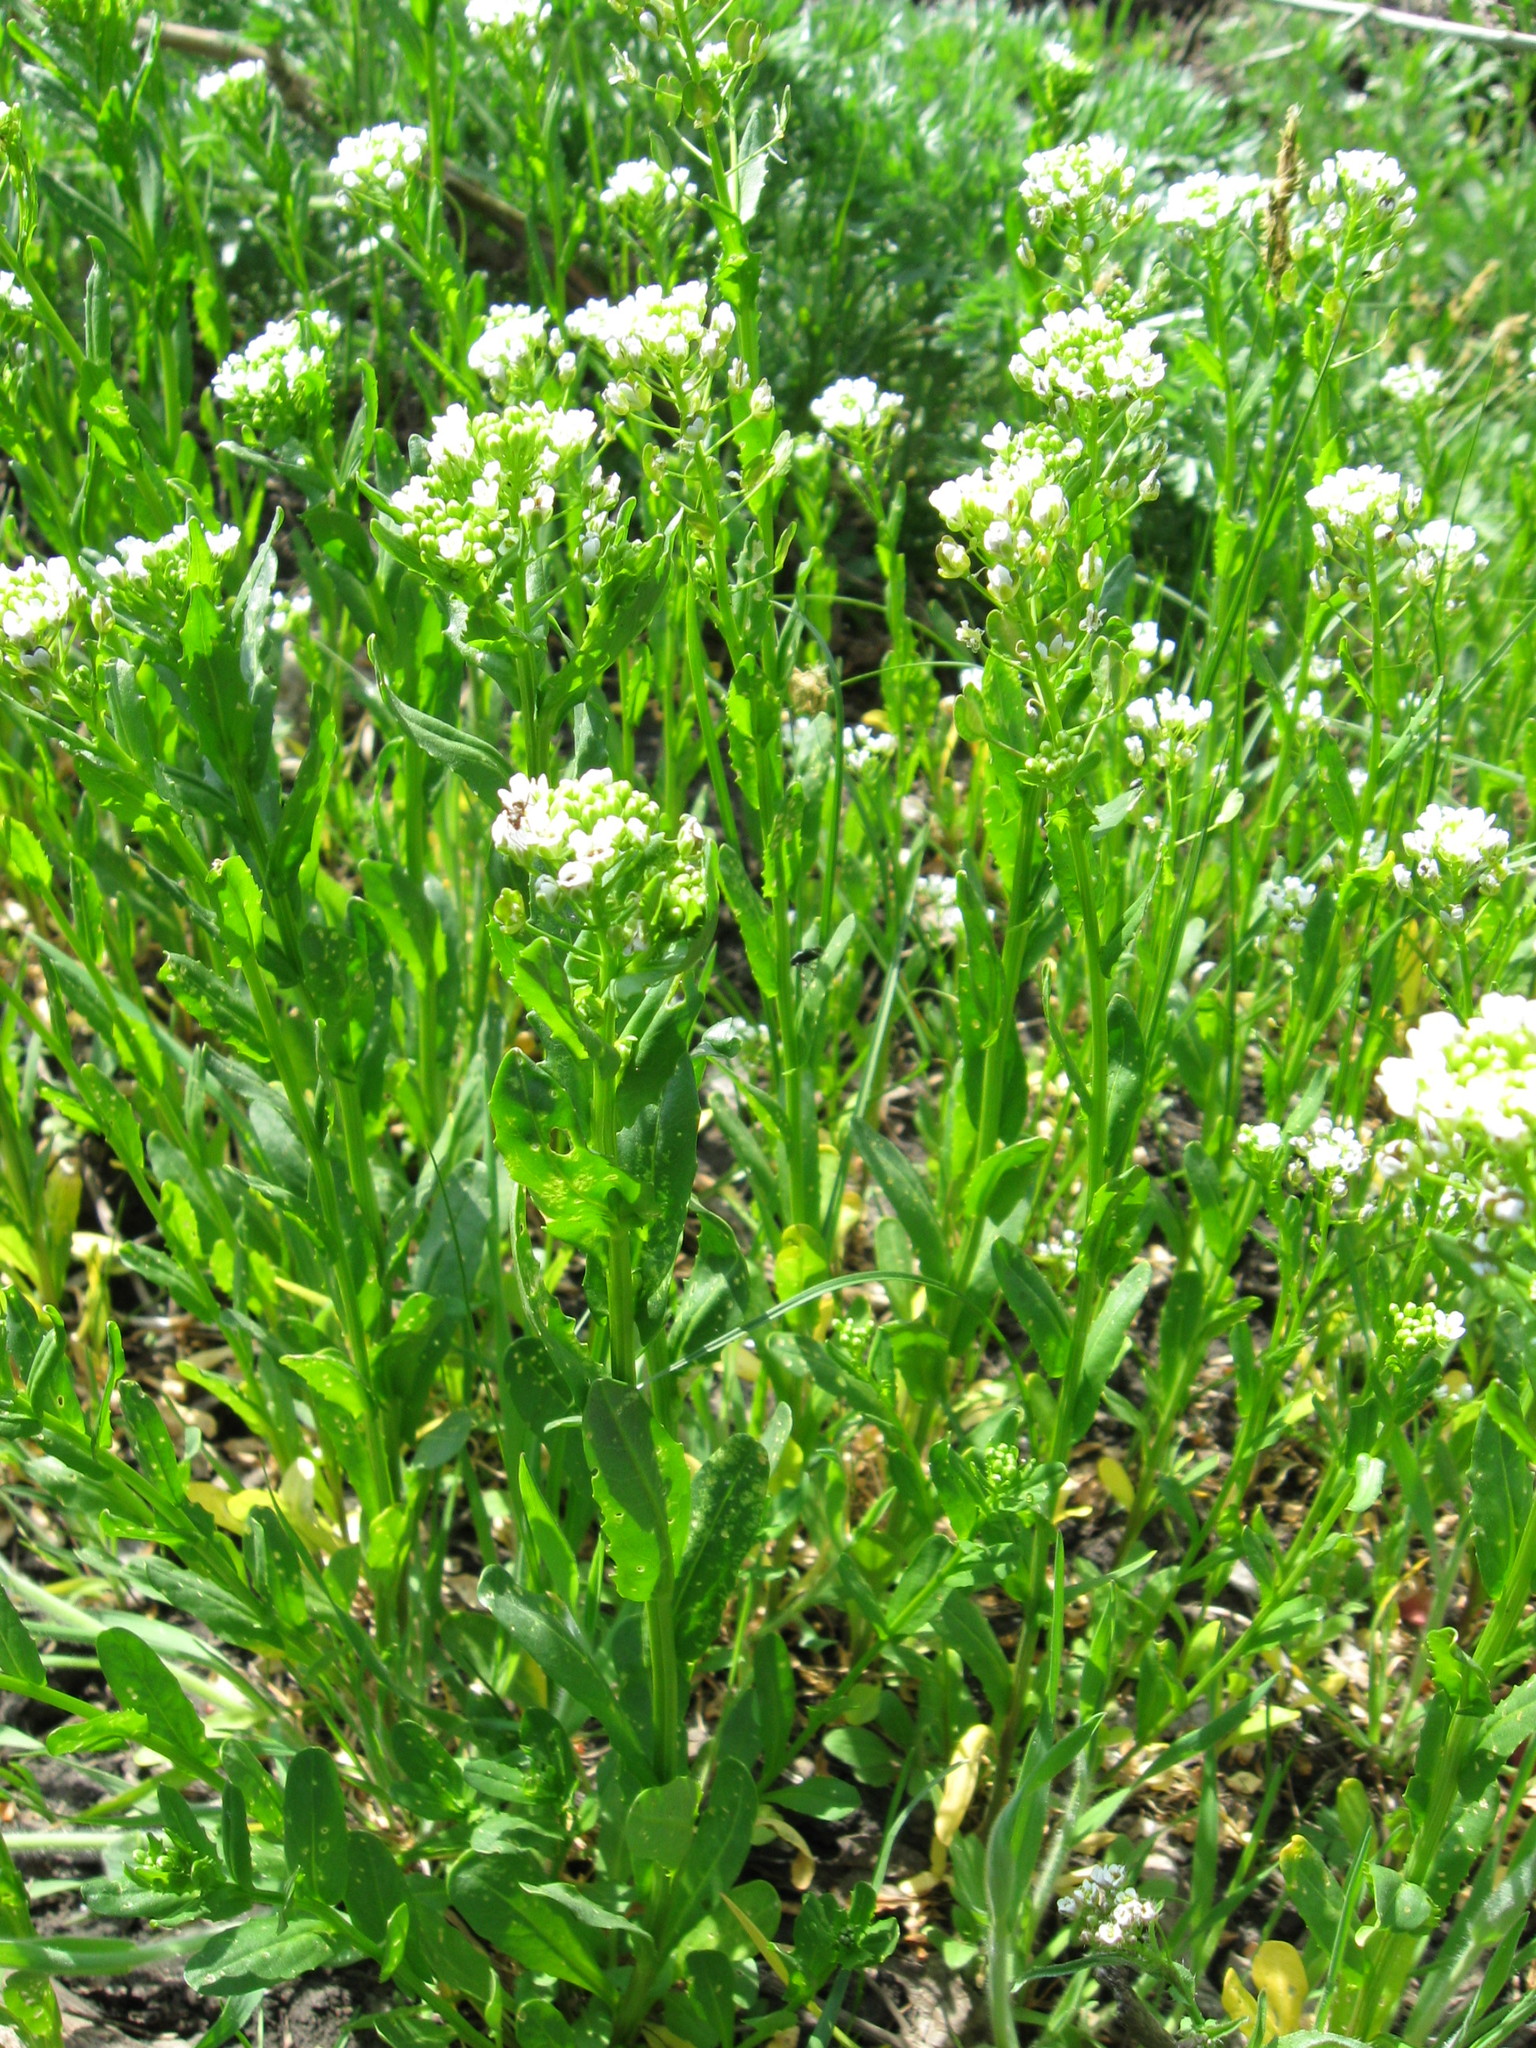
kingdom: Plantae
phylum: Tracheophyta
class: Magnoliopsida
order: Brassicales
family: Brassicaceae
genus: Thlaspi
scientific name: Thlaspi arvense
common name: Field pennycress
